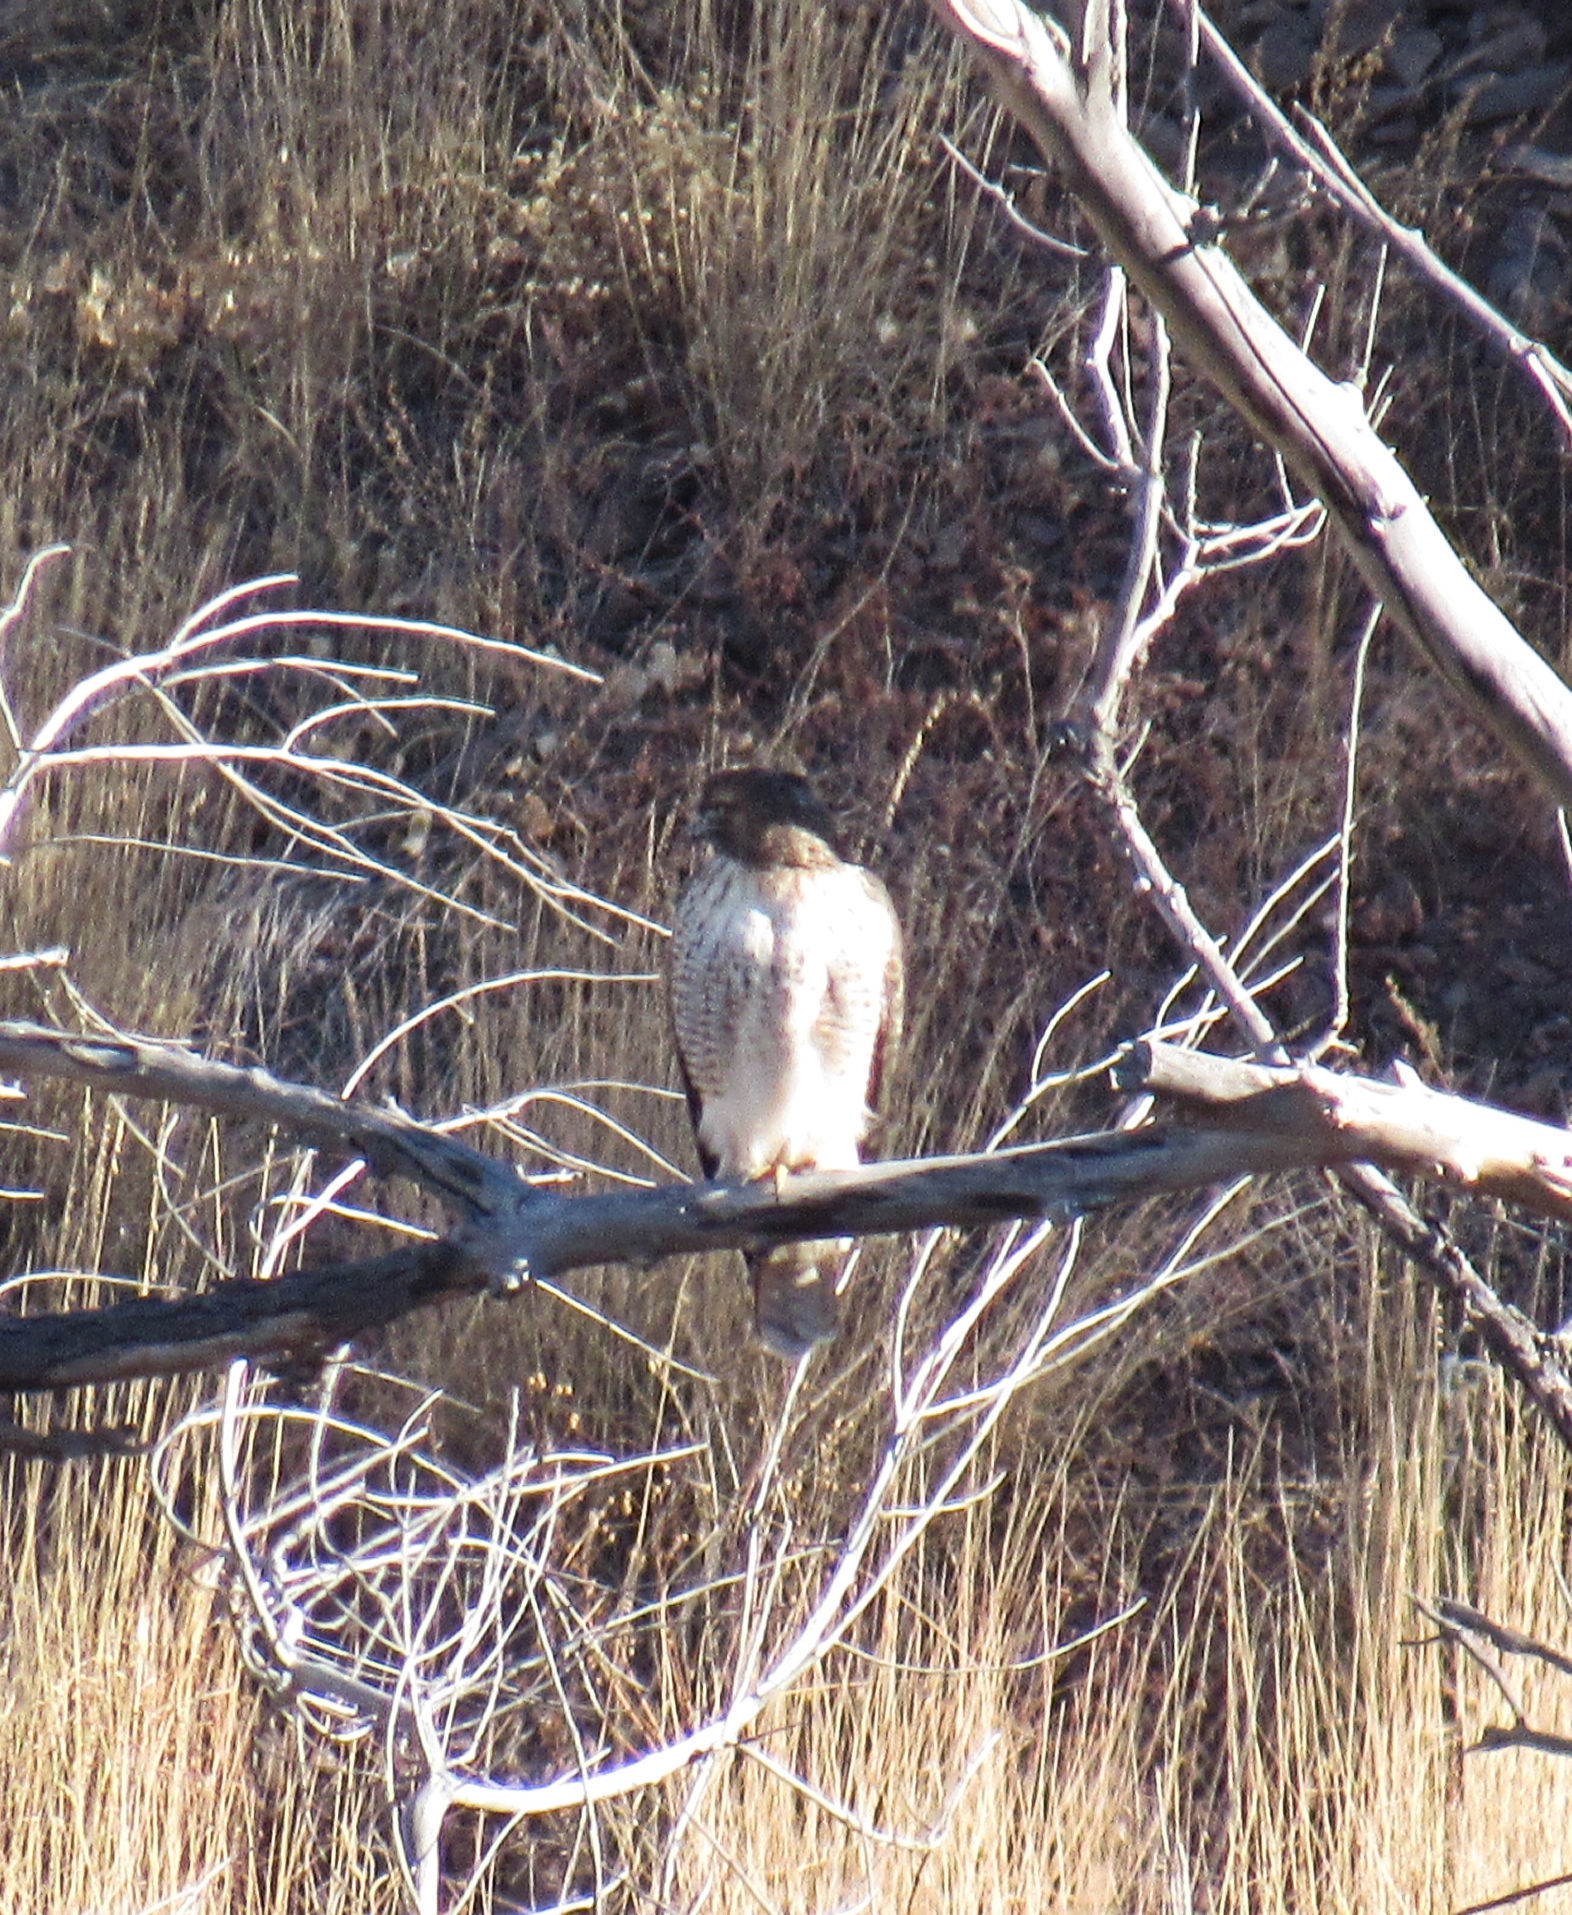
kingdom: Animalia
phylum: Chordata
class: Aves
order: Accipitriformes
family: Accipitridae
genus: Buteo
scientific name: Buteo jamaicensis
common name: Red-tailed hawk
